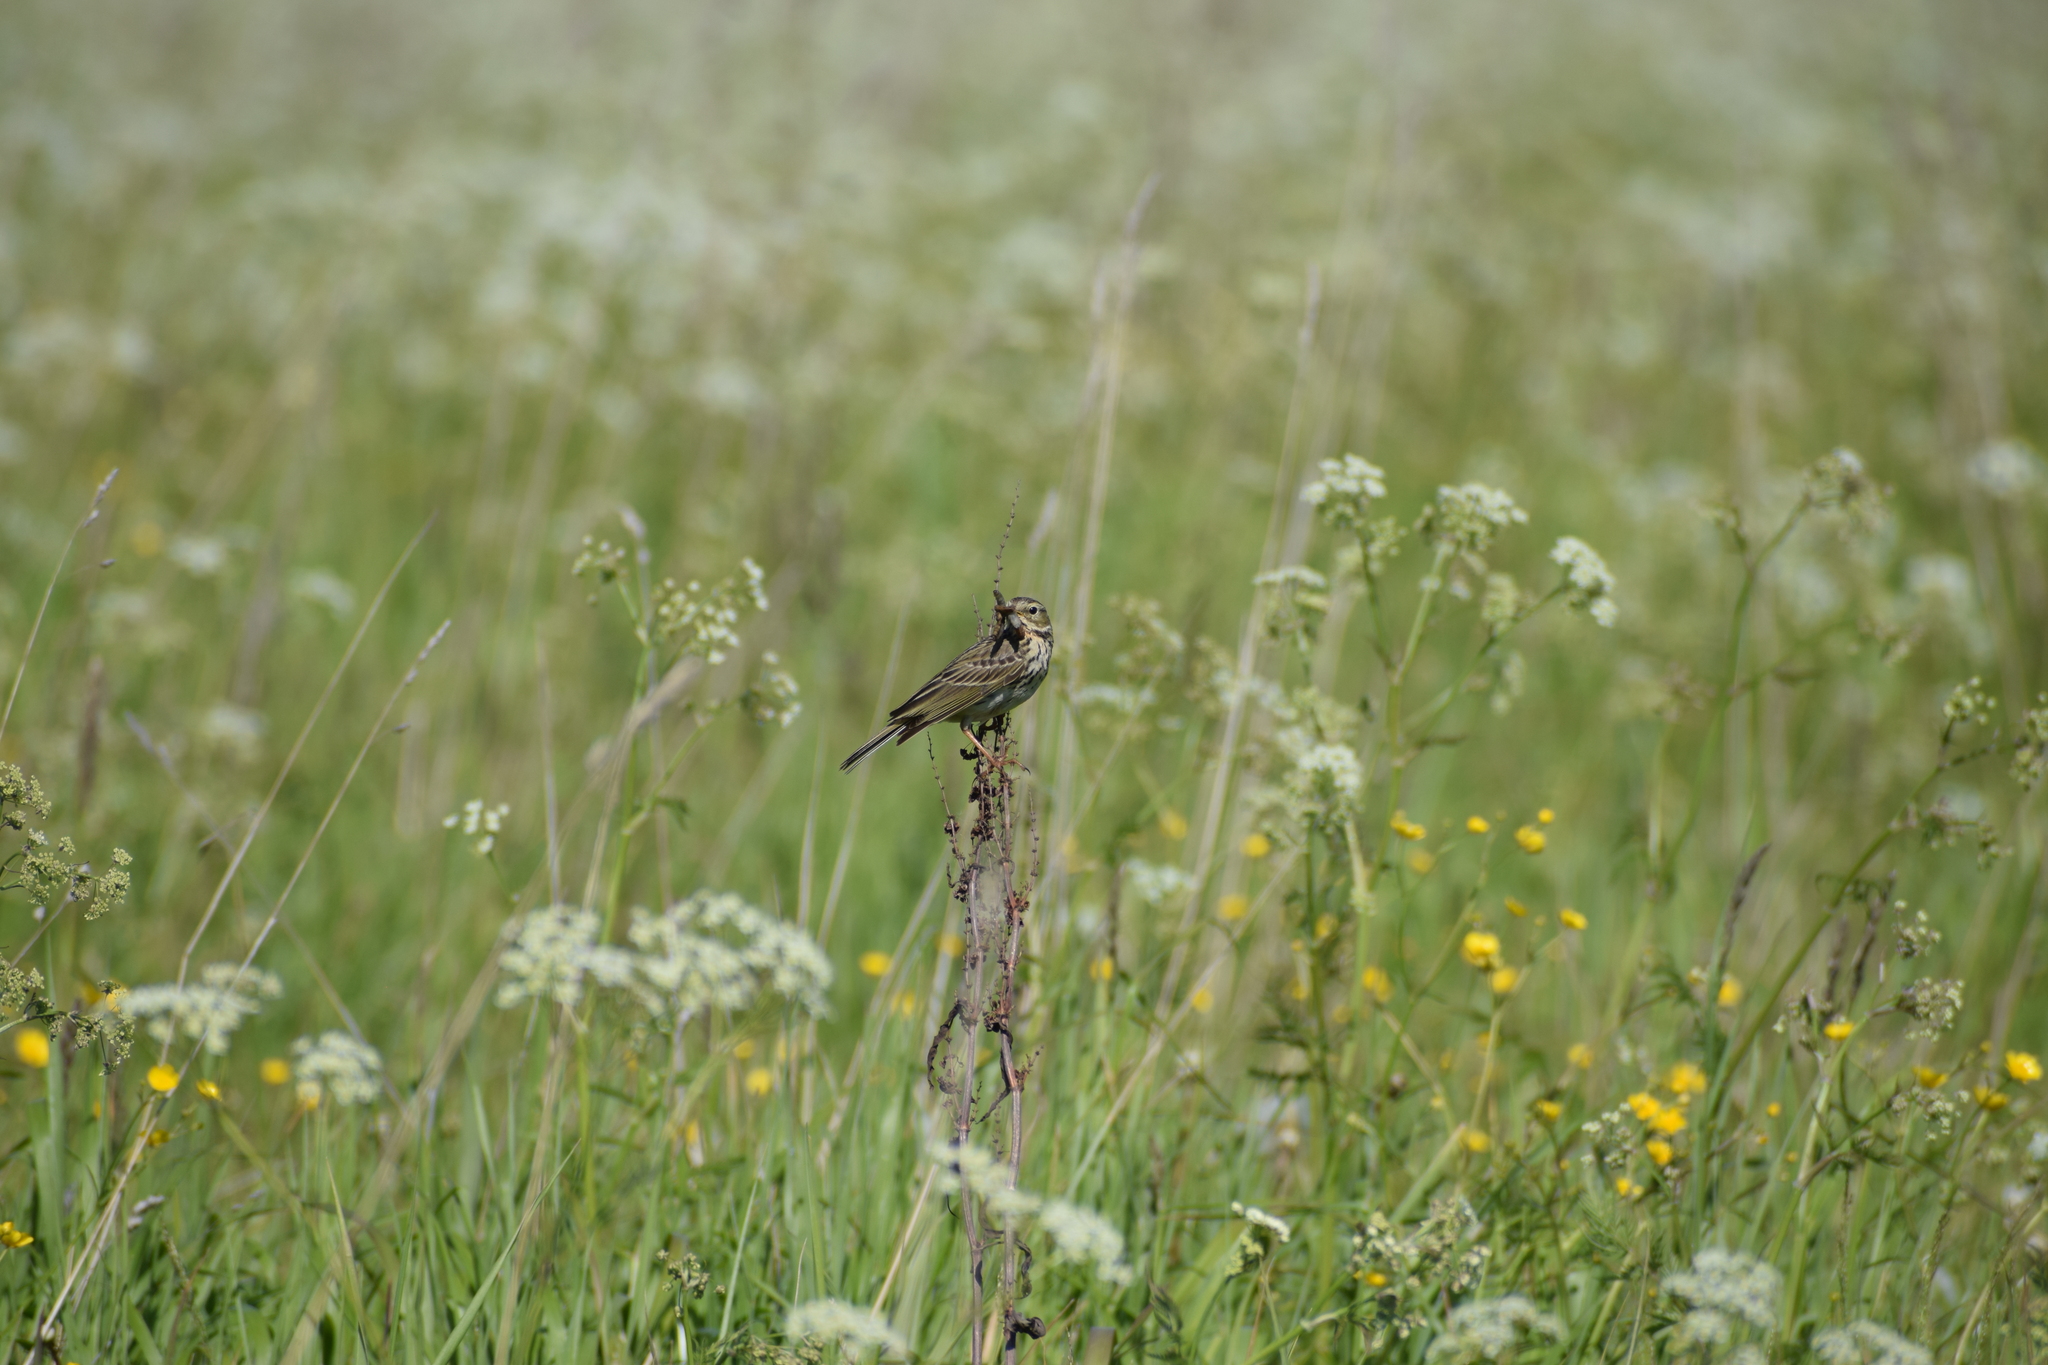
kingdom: Animalia
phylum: Chordata
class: Aves
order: Passeriformes
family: Motacillidae
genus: Anthus
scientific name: Anthus pratensis
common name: Meadow pipit
